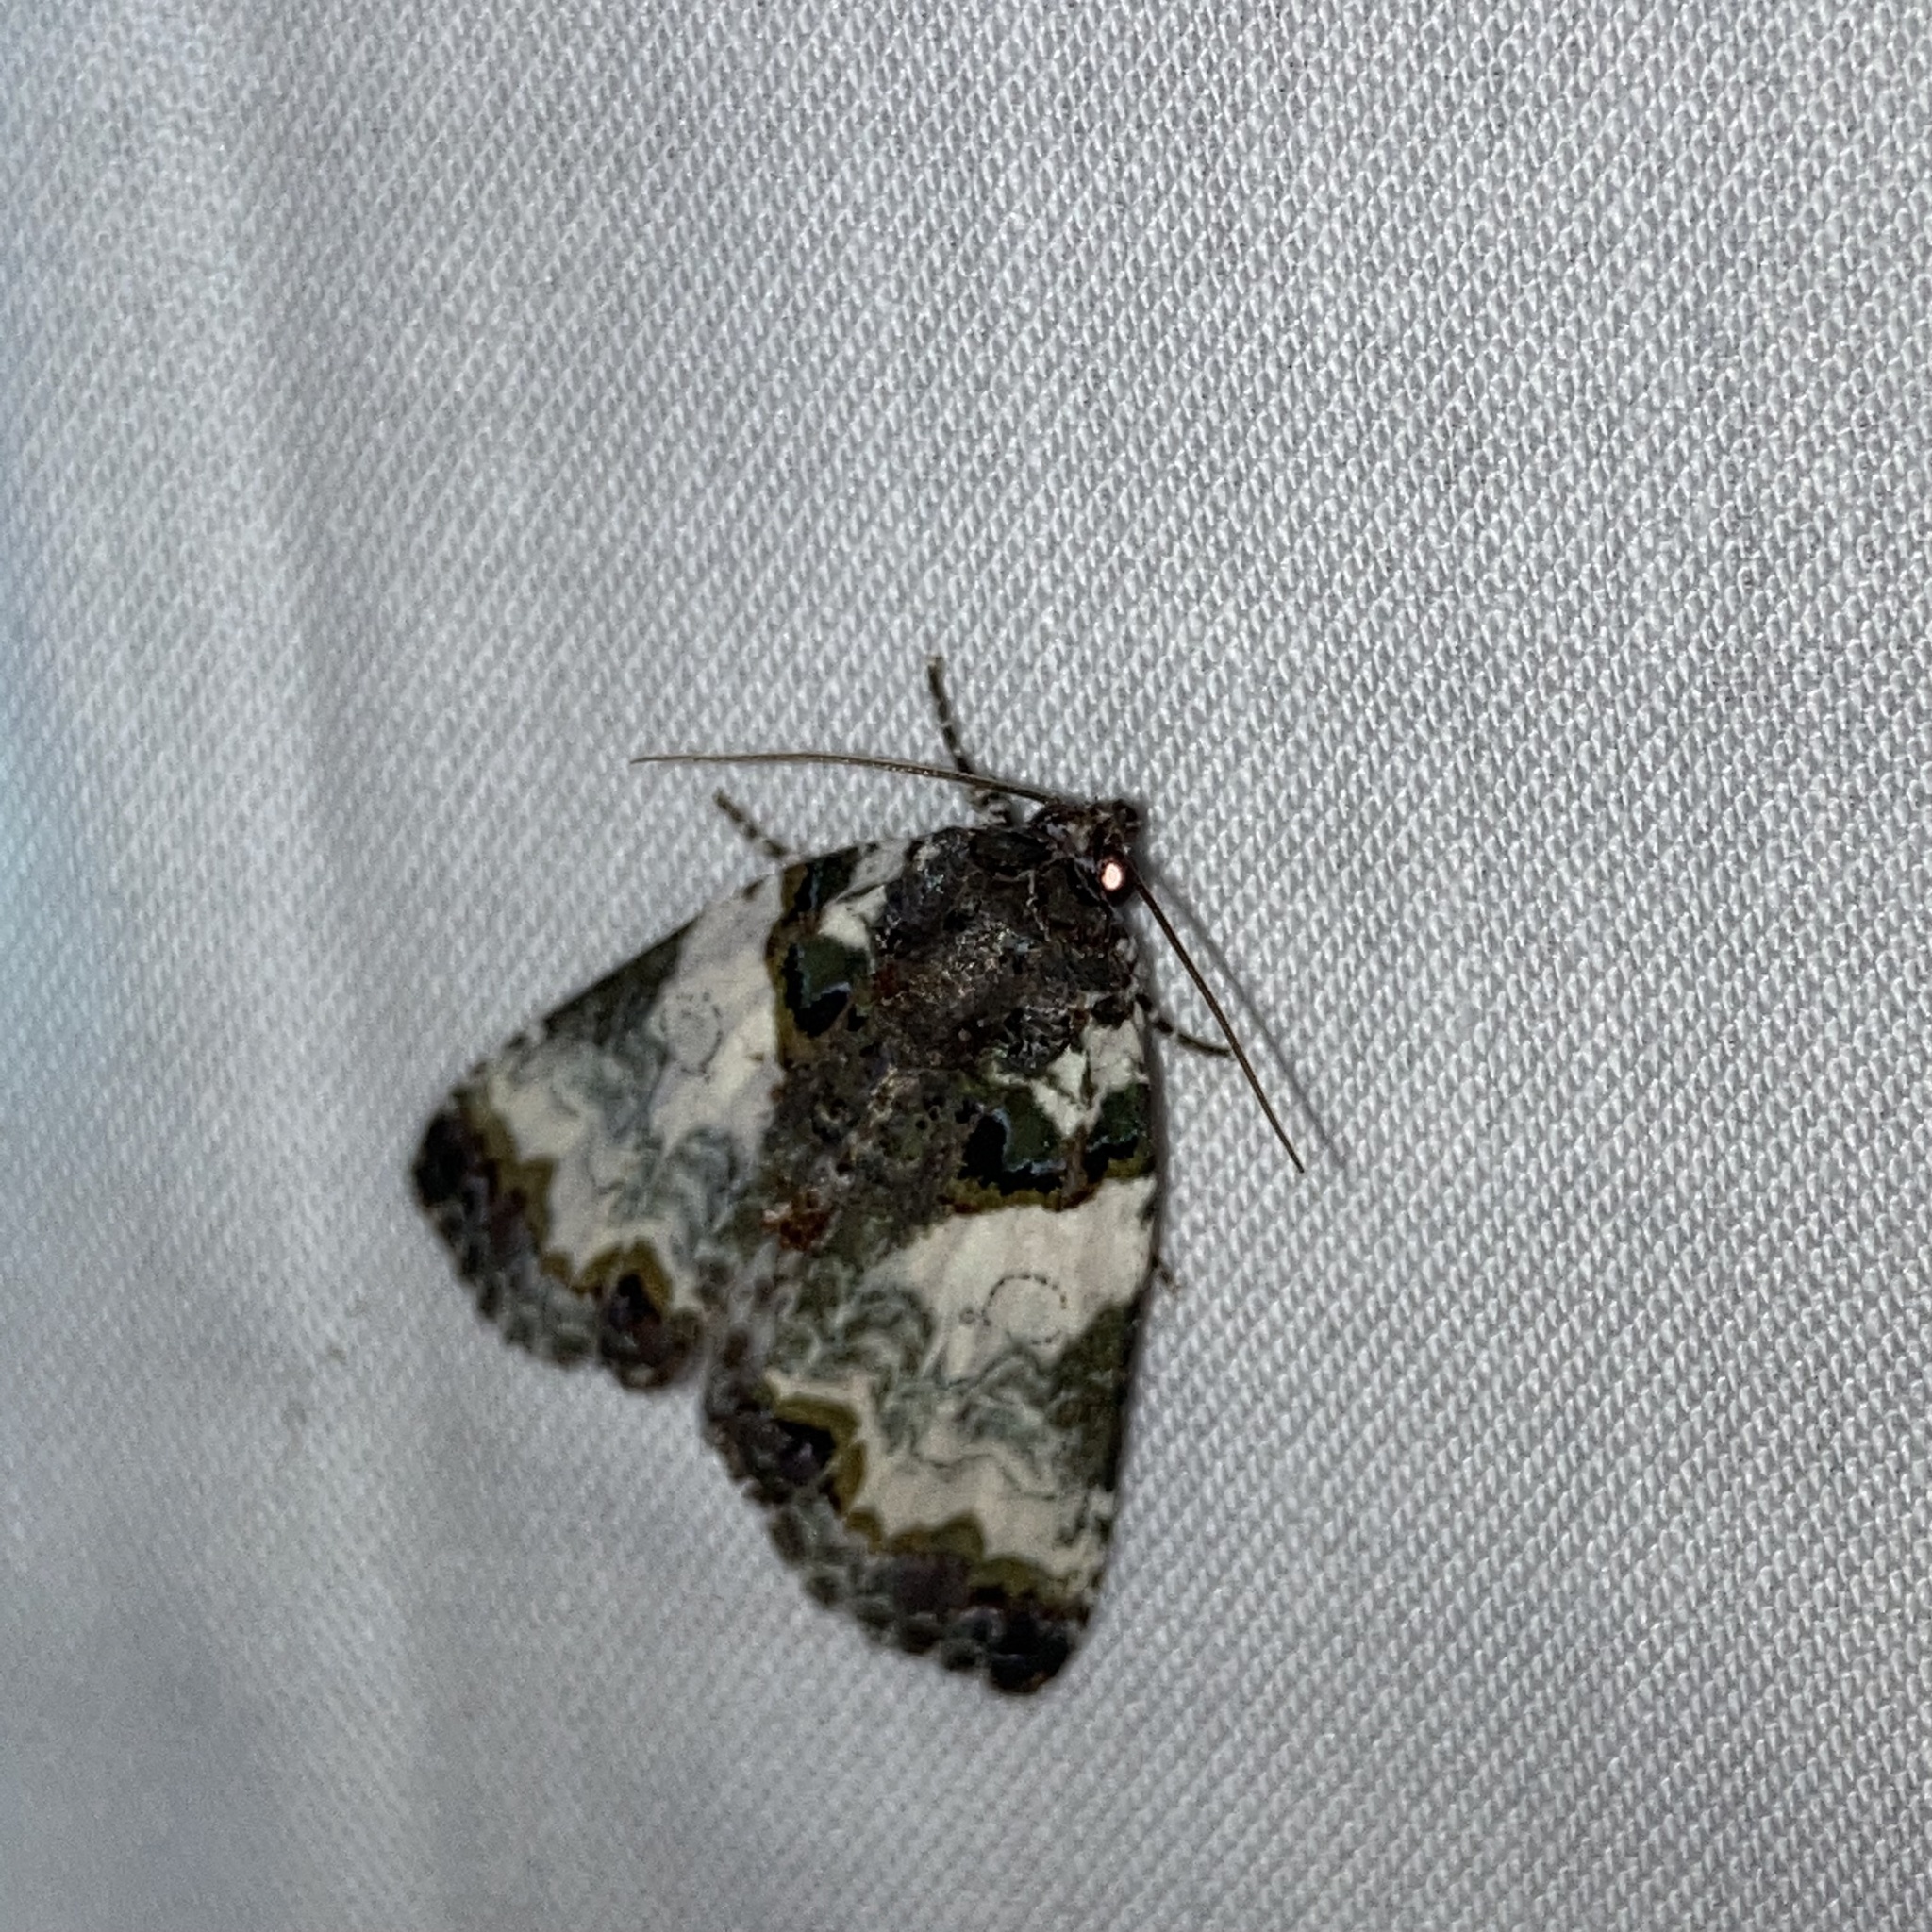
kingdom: Animalia
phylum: Arthropoda
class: Insecta
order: Lepidoptera
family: Noctuidae
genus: Cerma
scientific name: Cerma cerintha
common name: Tufted bird-dropping moth
